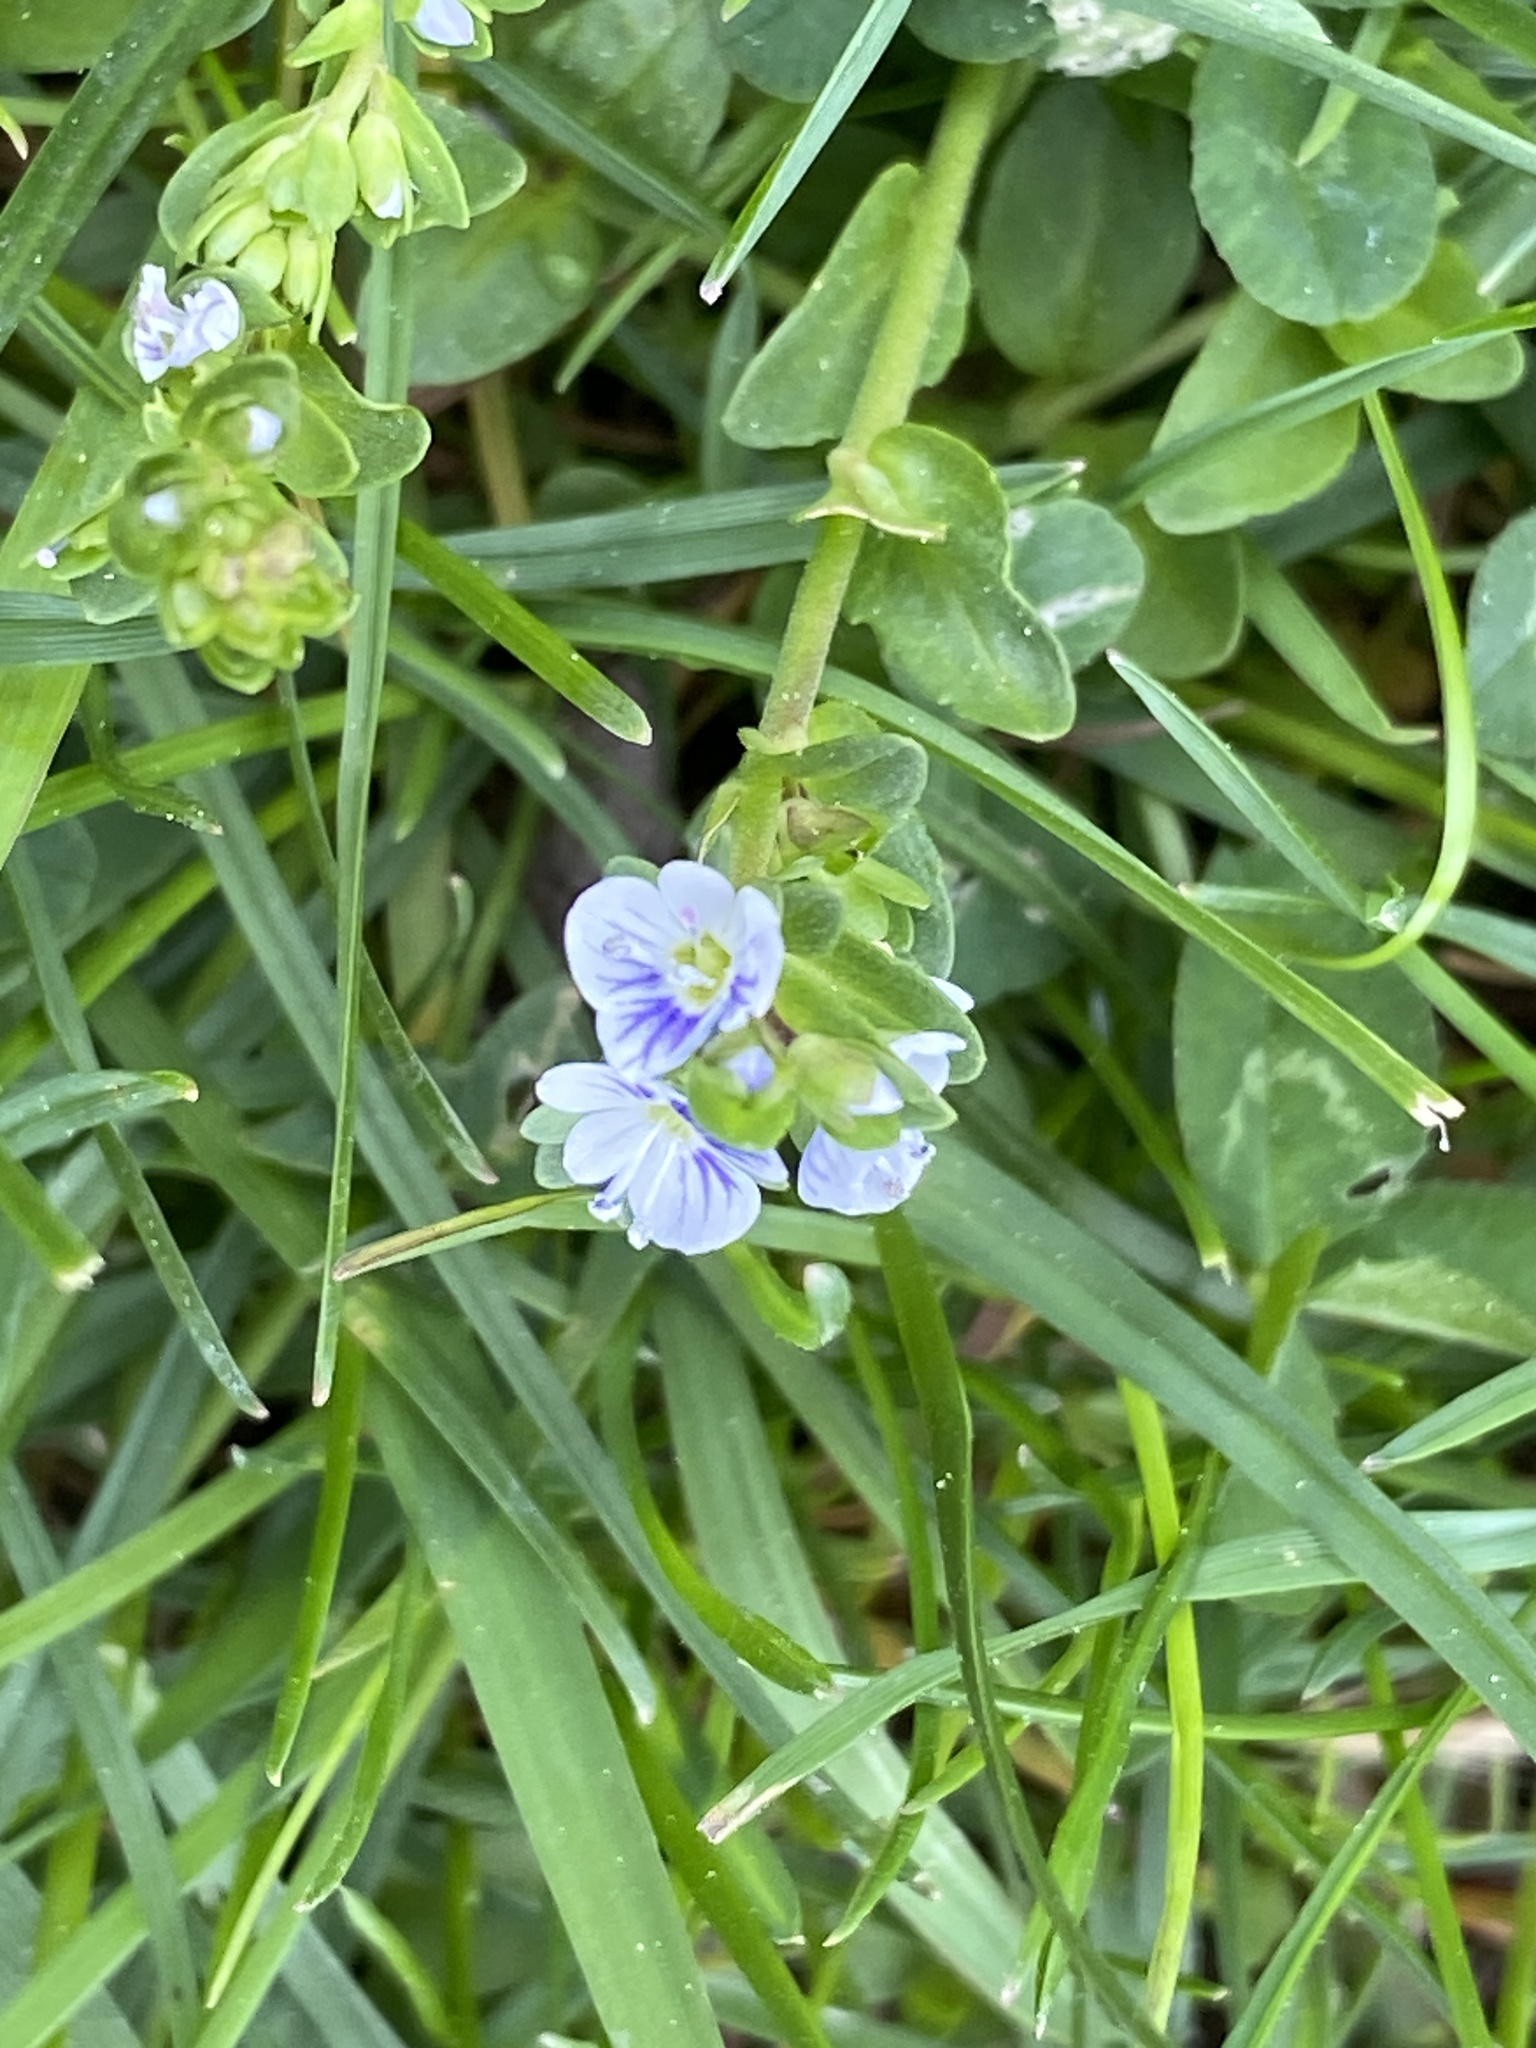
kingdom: Plantae
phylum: Tracheophyta
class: Magnoliopsida
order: Lamiales
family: Plantaginaceae
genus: Veronica
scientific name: Veronica serpyllifolia
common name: Thyme-leaved speedwell
